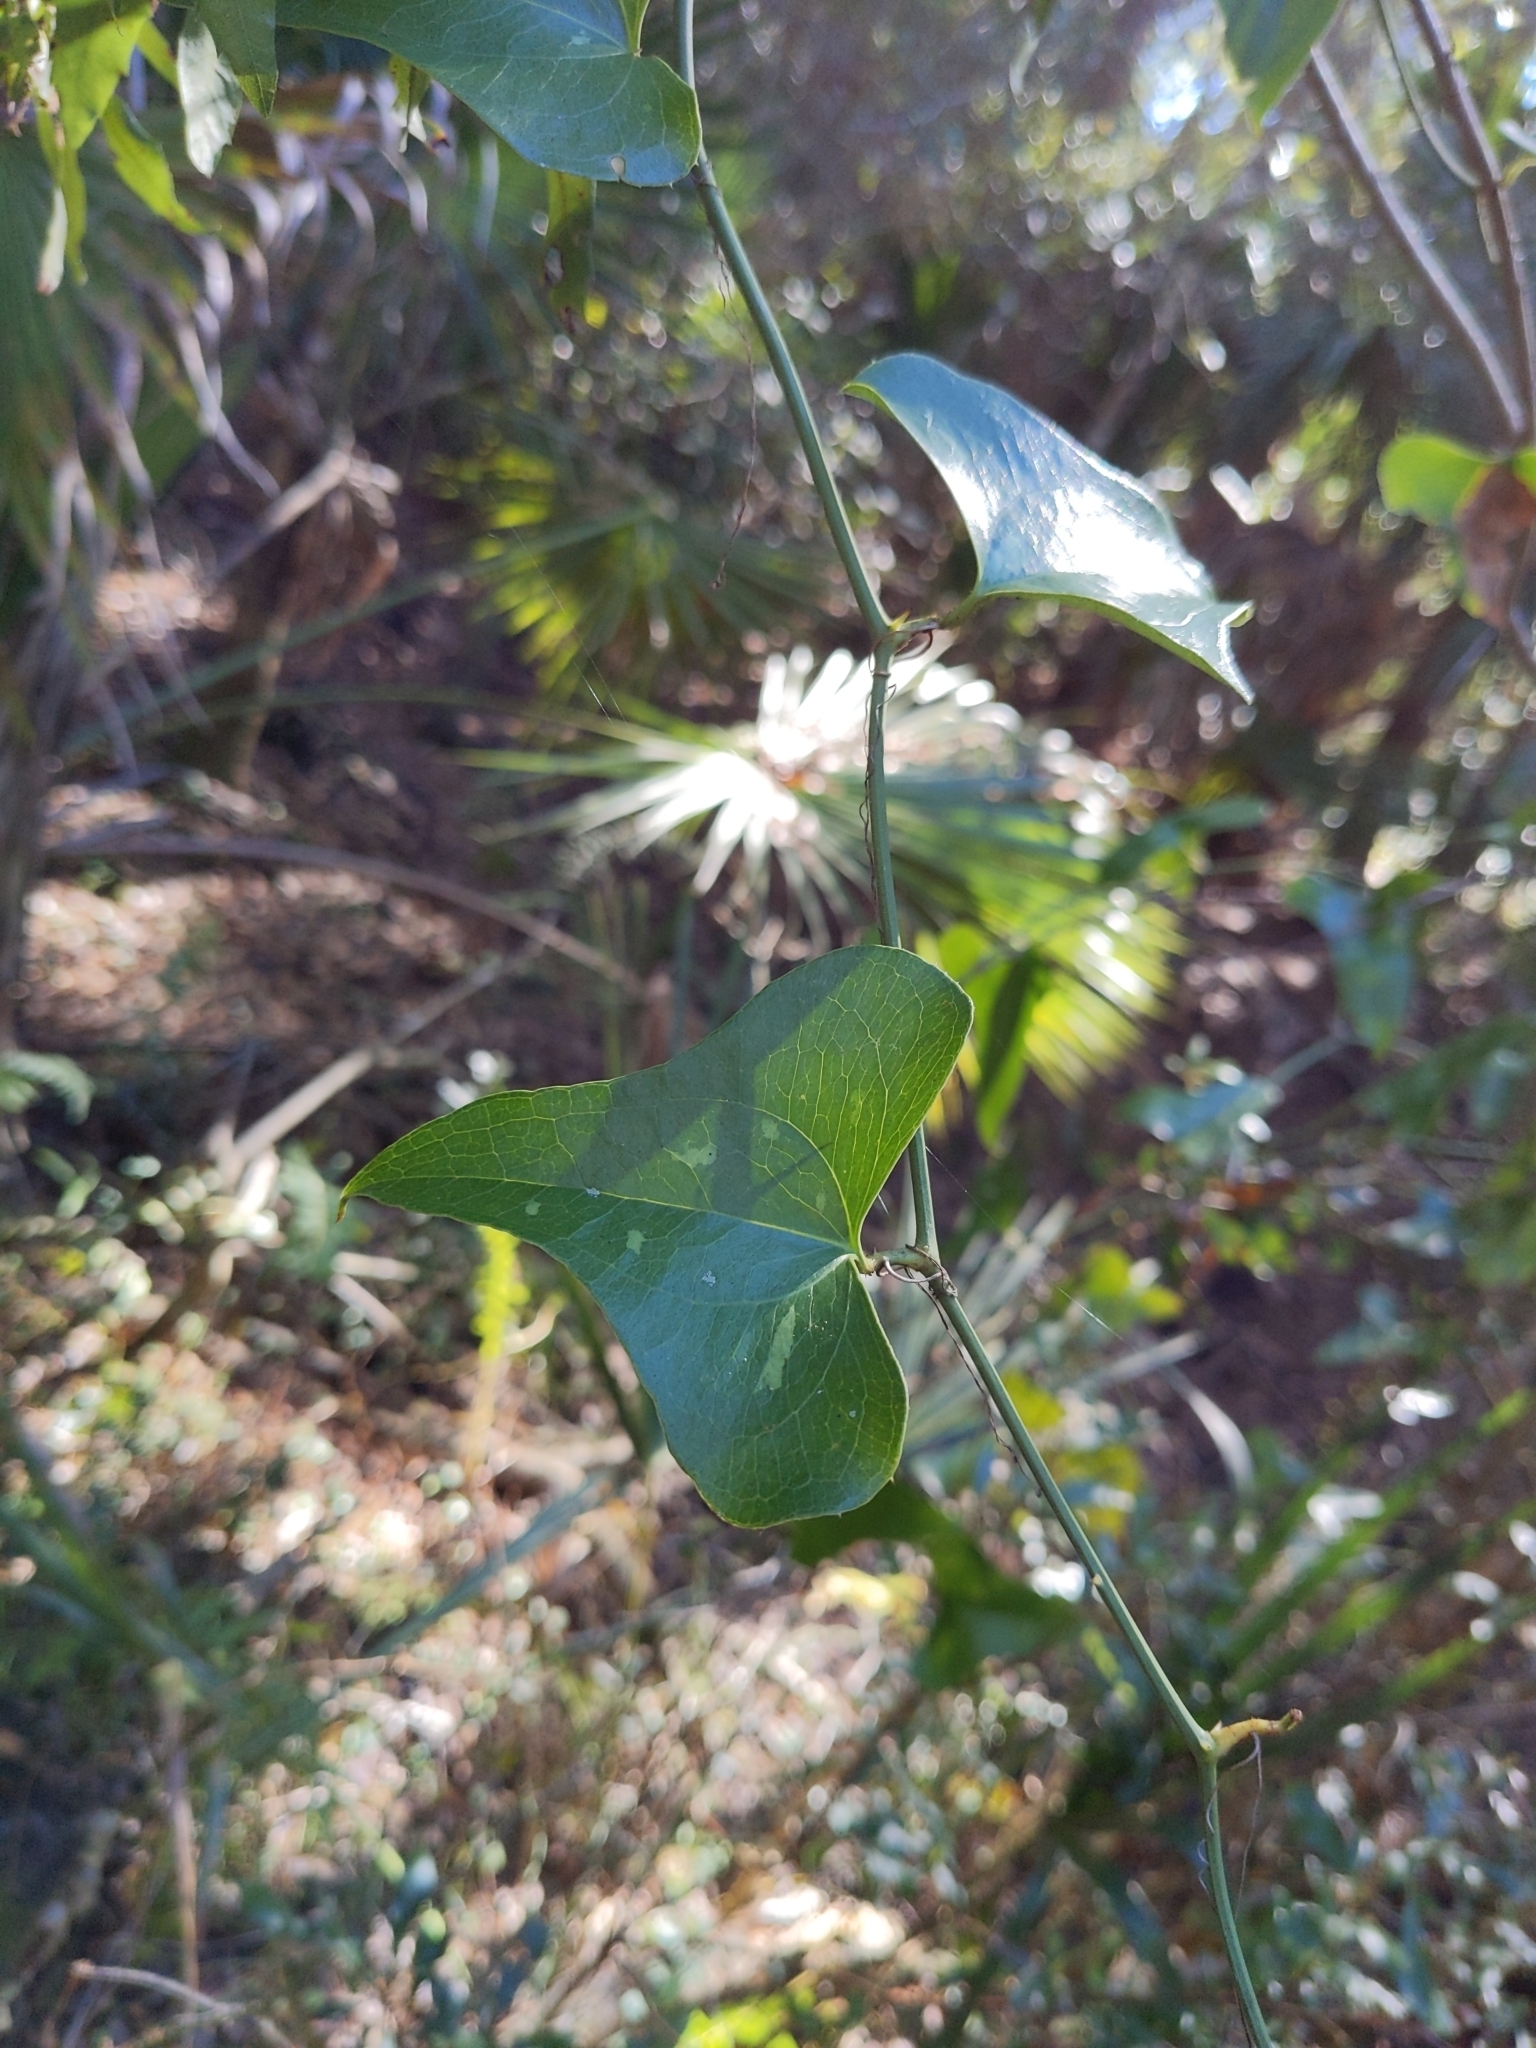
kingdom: Plantae
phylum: Tracheophyta
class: Liliopsida
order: Liliales
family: Smilacaceae
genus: Smilax
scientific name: Smilax bona-nox
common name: Catbrier
